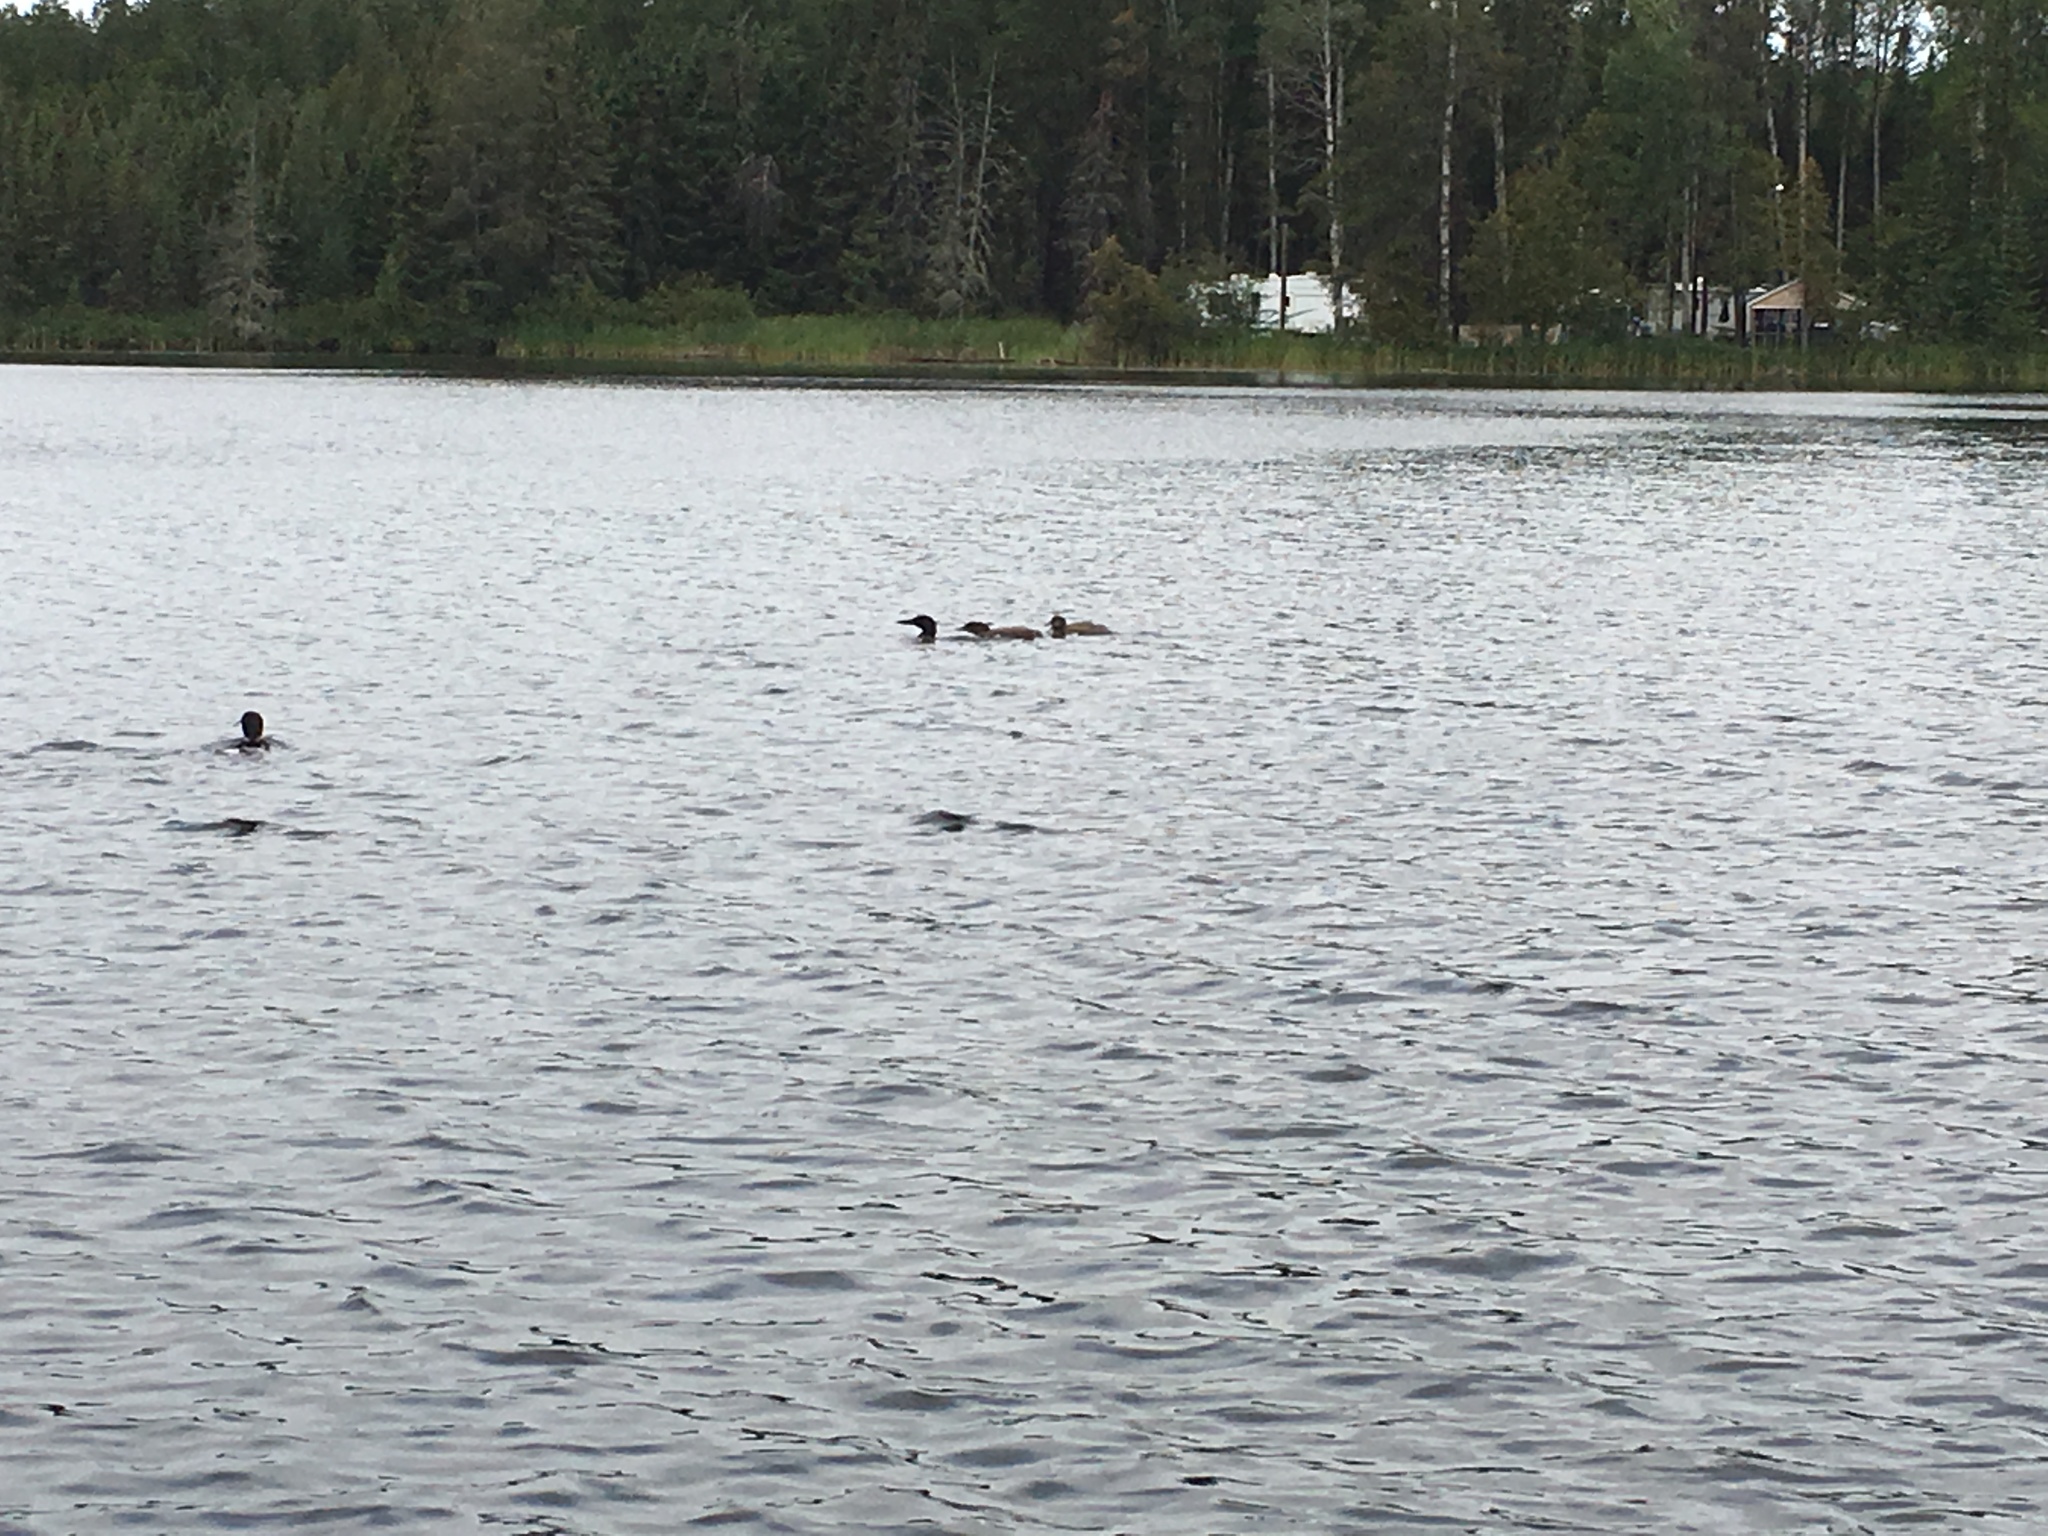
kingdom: Animalia
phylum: Chordata
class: Aves
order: Gaviiformes
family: Gaviidae
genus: Gavia
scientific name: Gavia immer
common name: Common loon
